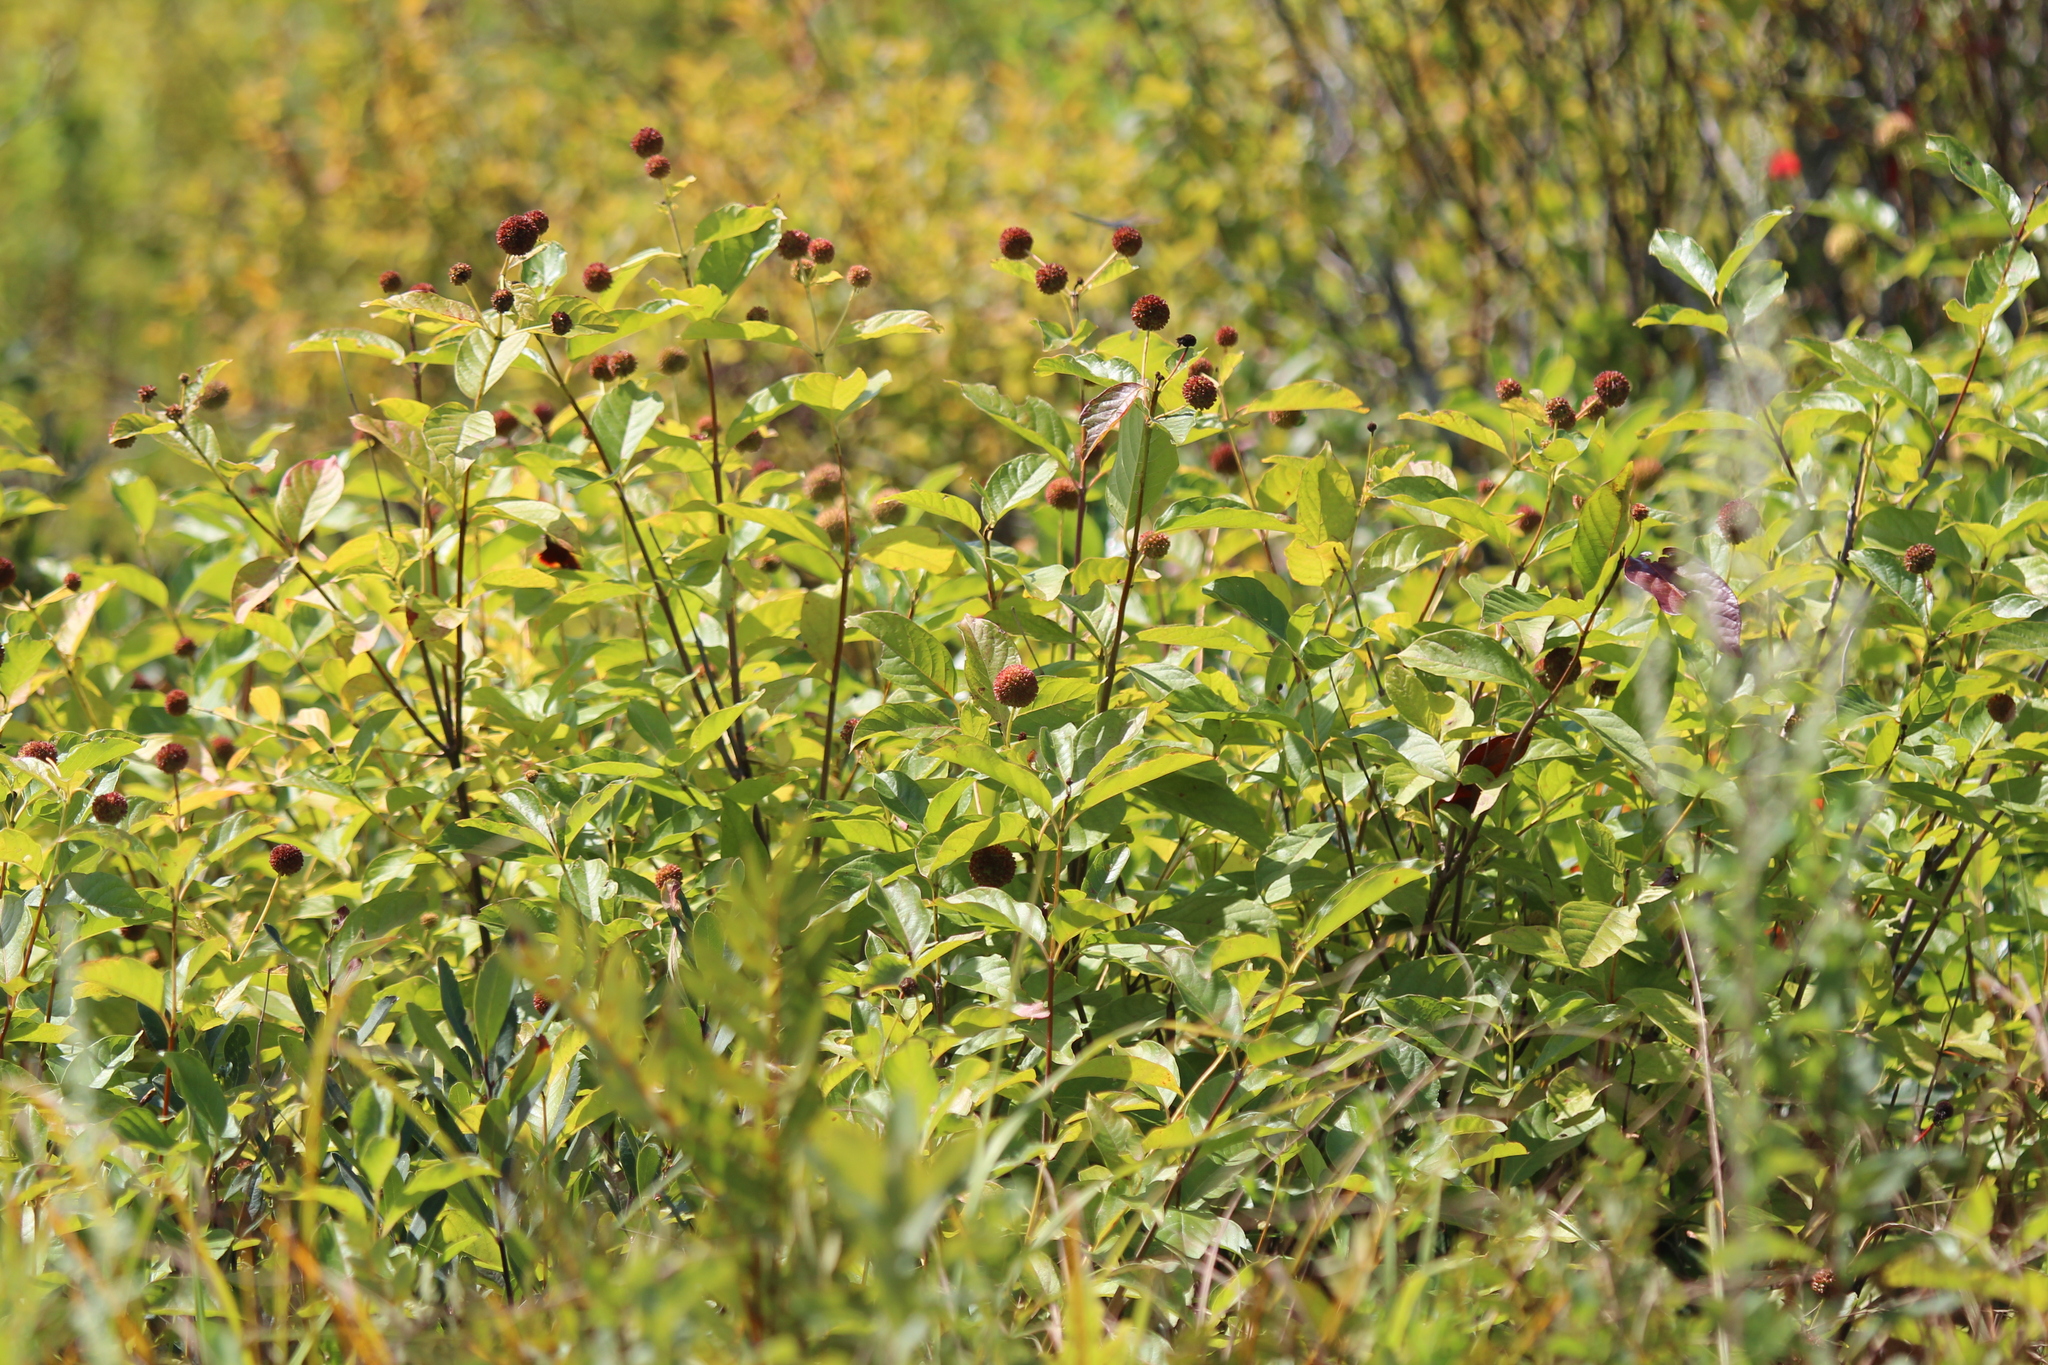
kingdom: Plantae
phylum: Tracheophyta
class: Magnoliopsida
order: Gentianales
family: Rubiaceae
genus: Cephalanthus
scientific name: Cephalanthus occidentalis
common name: Button-willow
